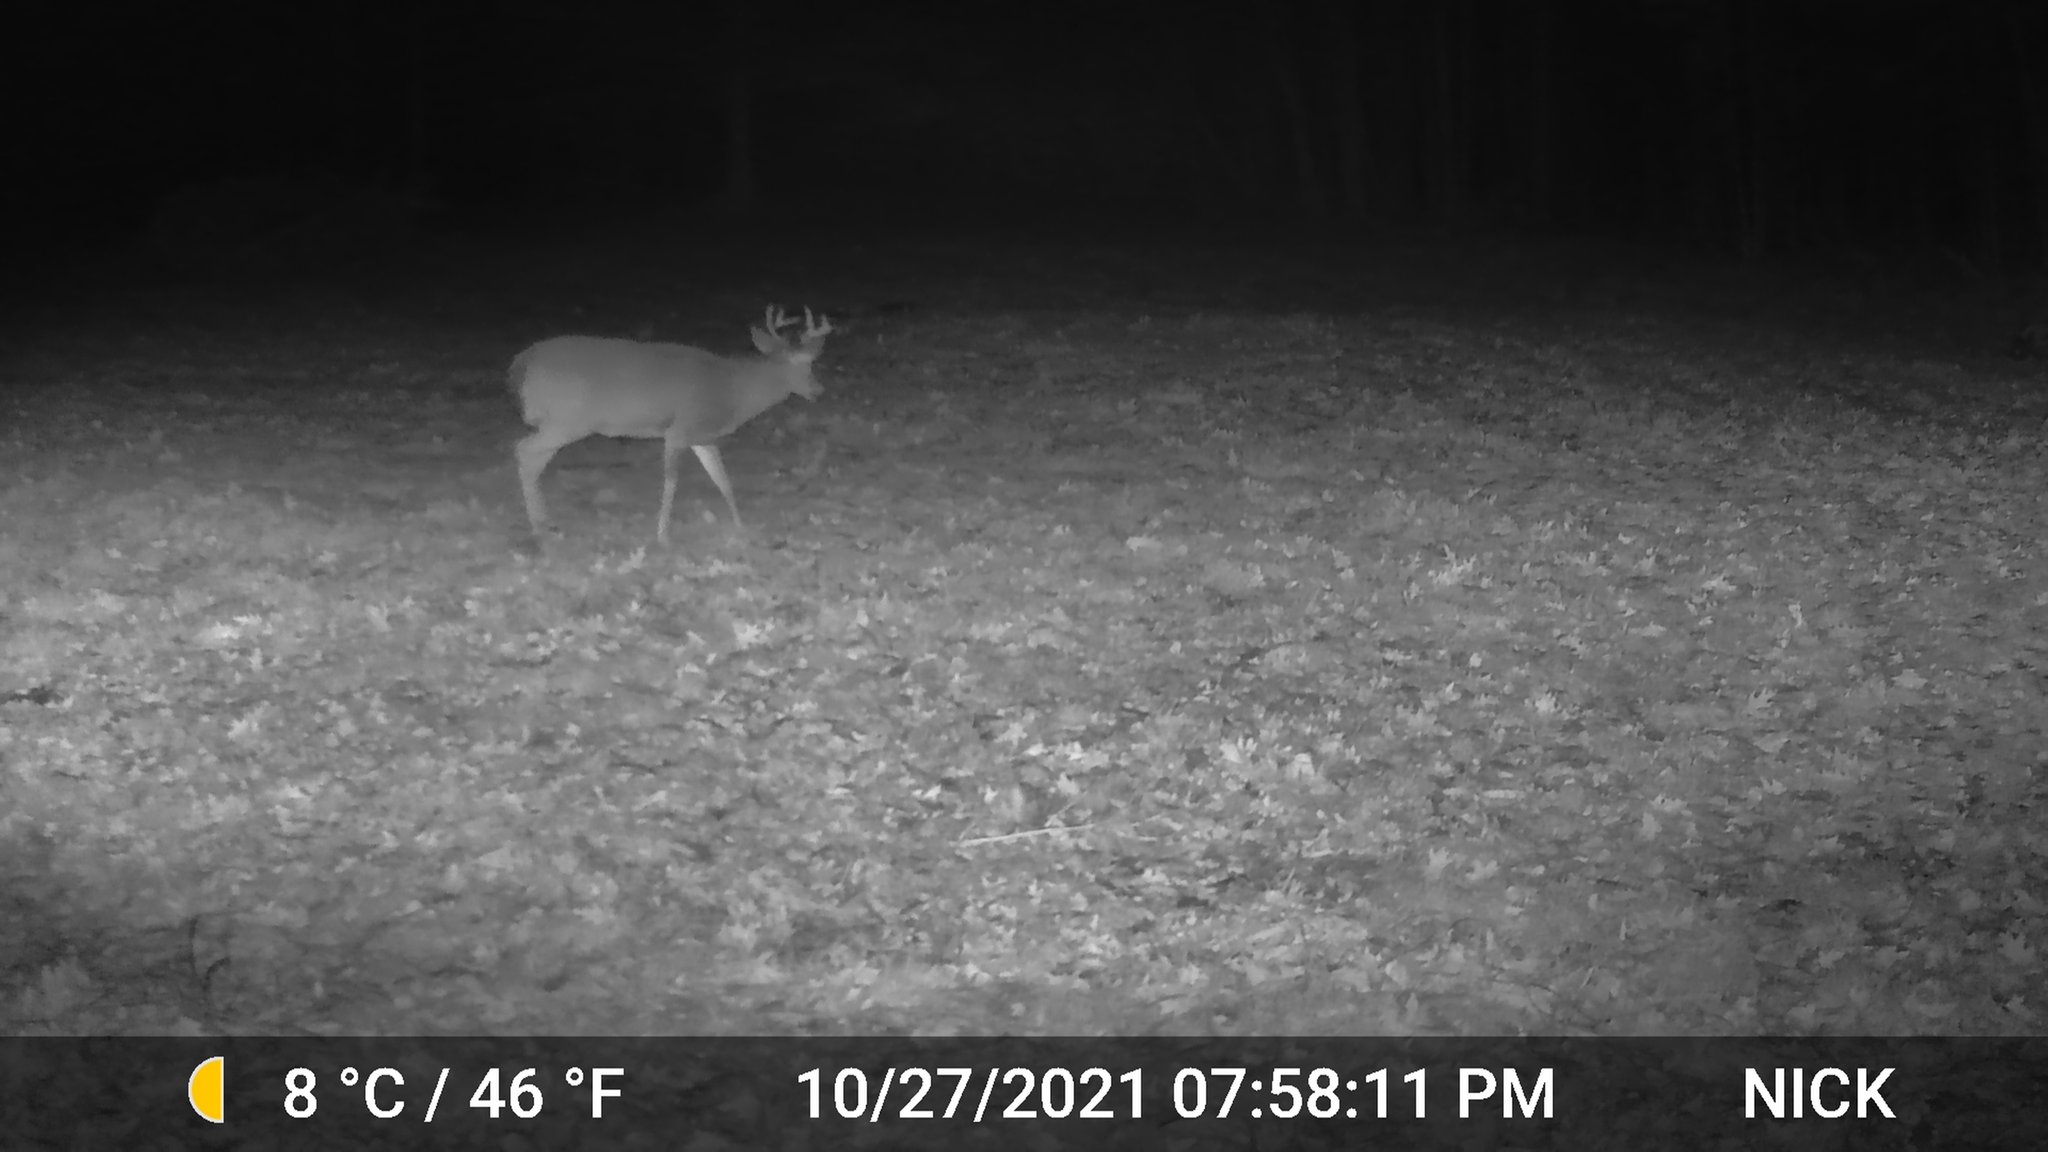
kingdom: Animalia
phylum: Chordata
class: Mammalia
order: Artiodactyla
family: Cervidae
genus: Odocoileus
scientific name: Odocoileus virginianus
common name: White-tailed deer
